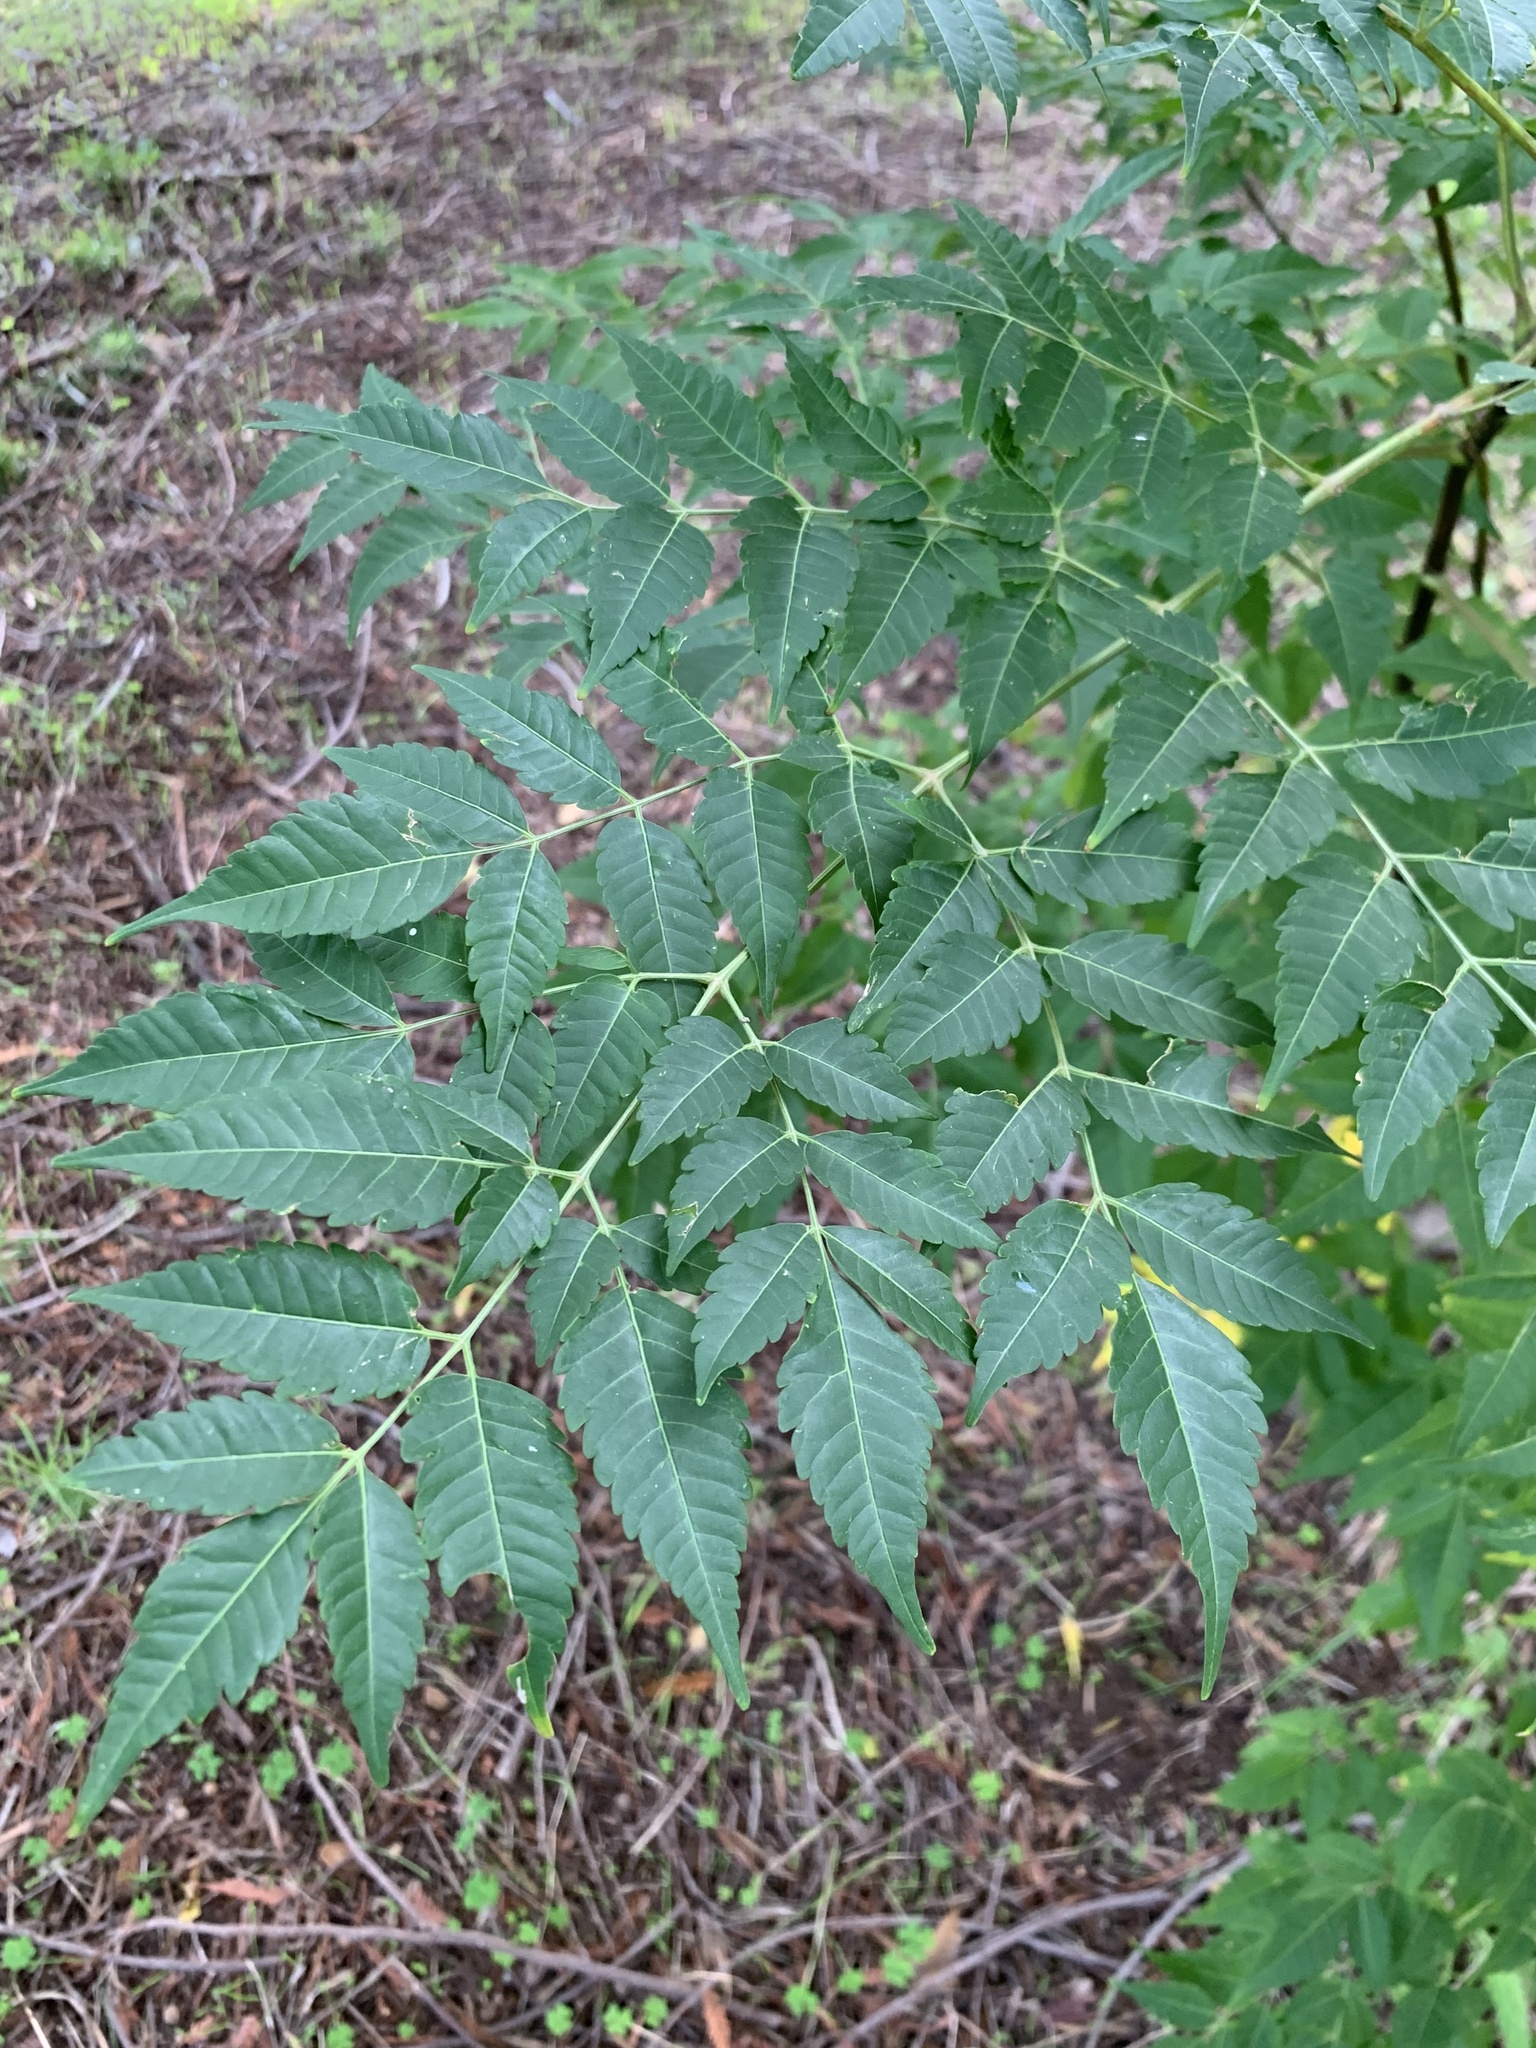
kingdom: Plantae
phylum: Tracheophyta
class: Magnoliopsida
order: Sapindales
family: Meliaceae
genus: Melia
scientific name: Melia azedarach
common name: Chinaberrytree
